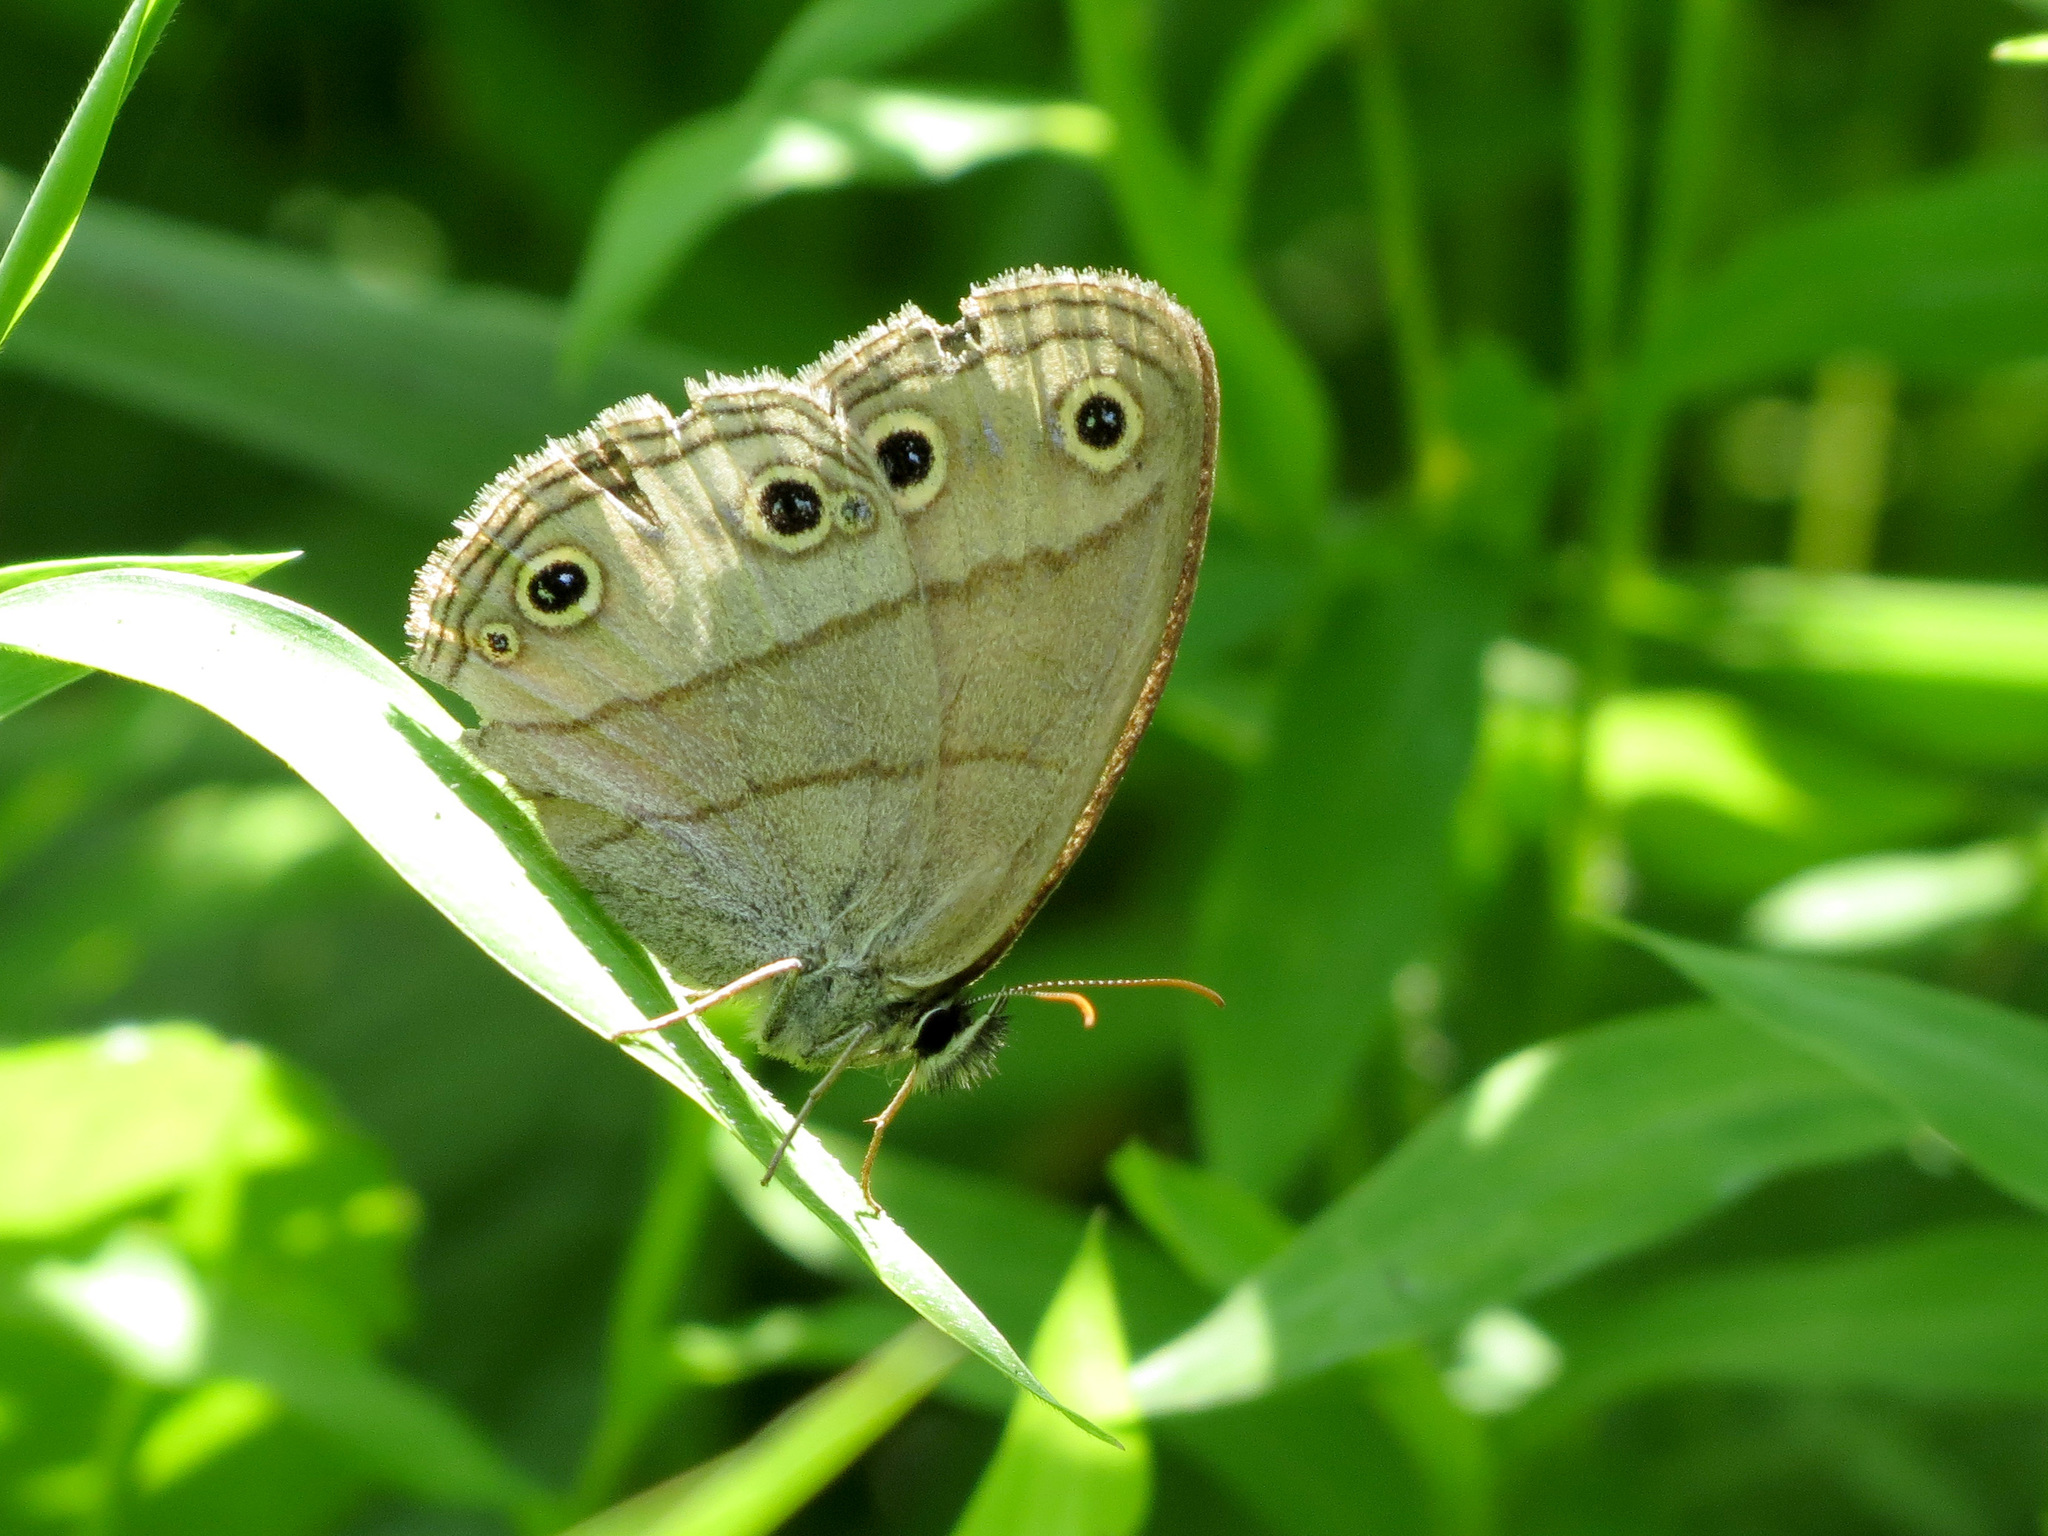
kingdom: Animalia
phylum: Arthropoda
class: Insecta
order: Lepidoptera
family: Nymphalidae
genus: Euptychia
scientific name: Euptychia cymela
